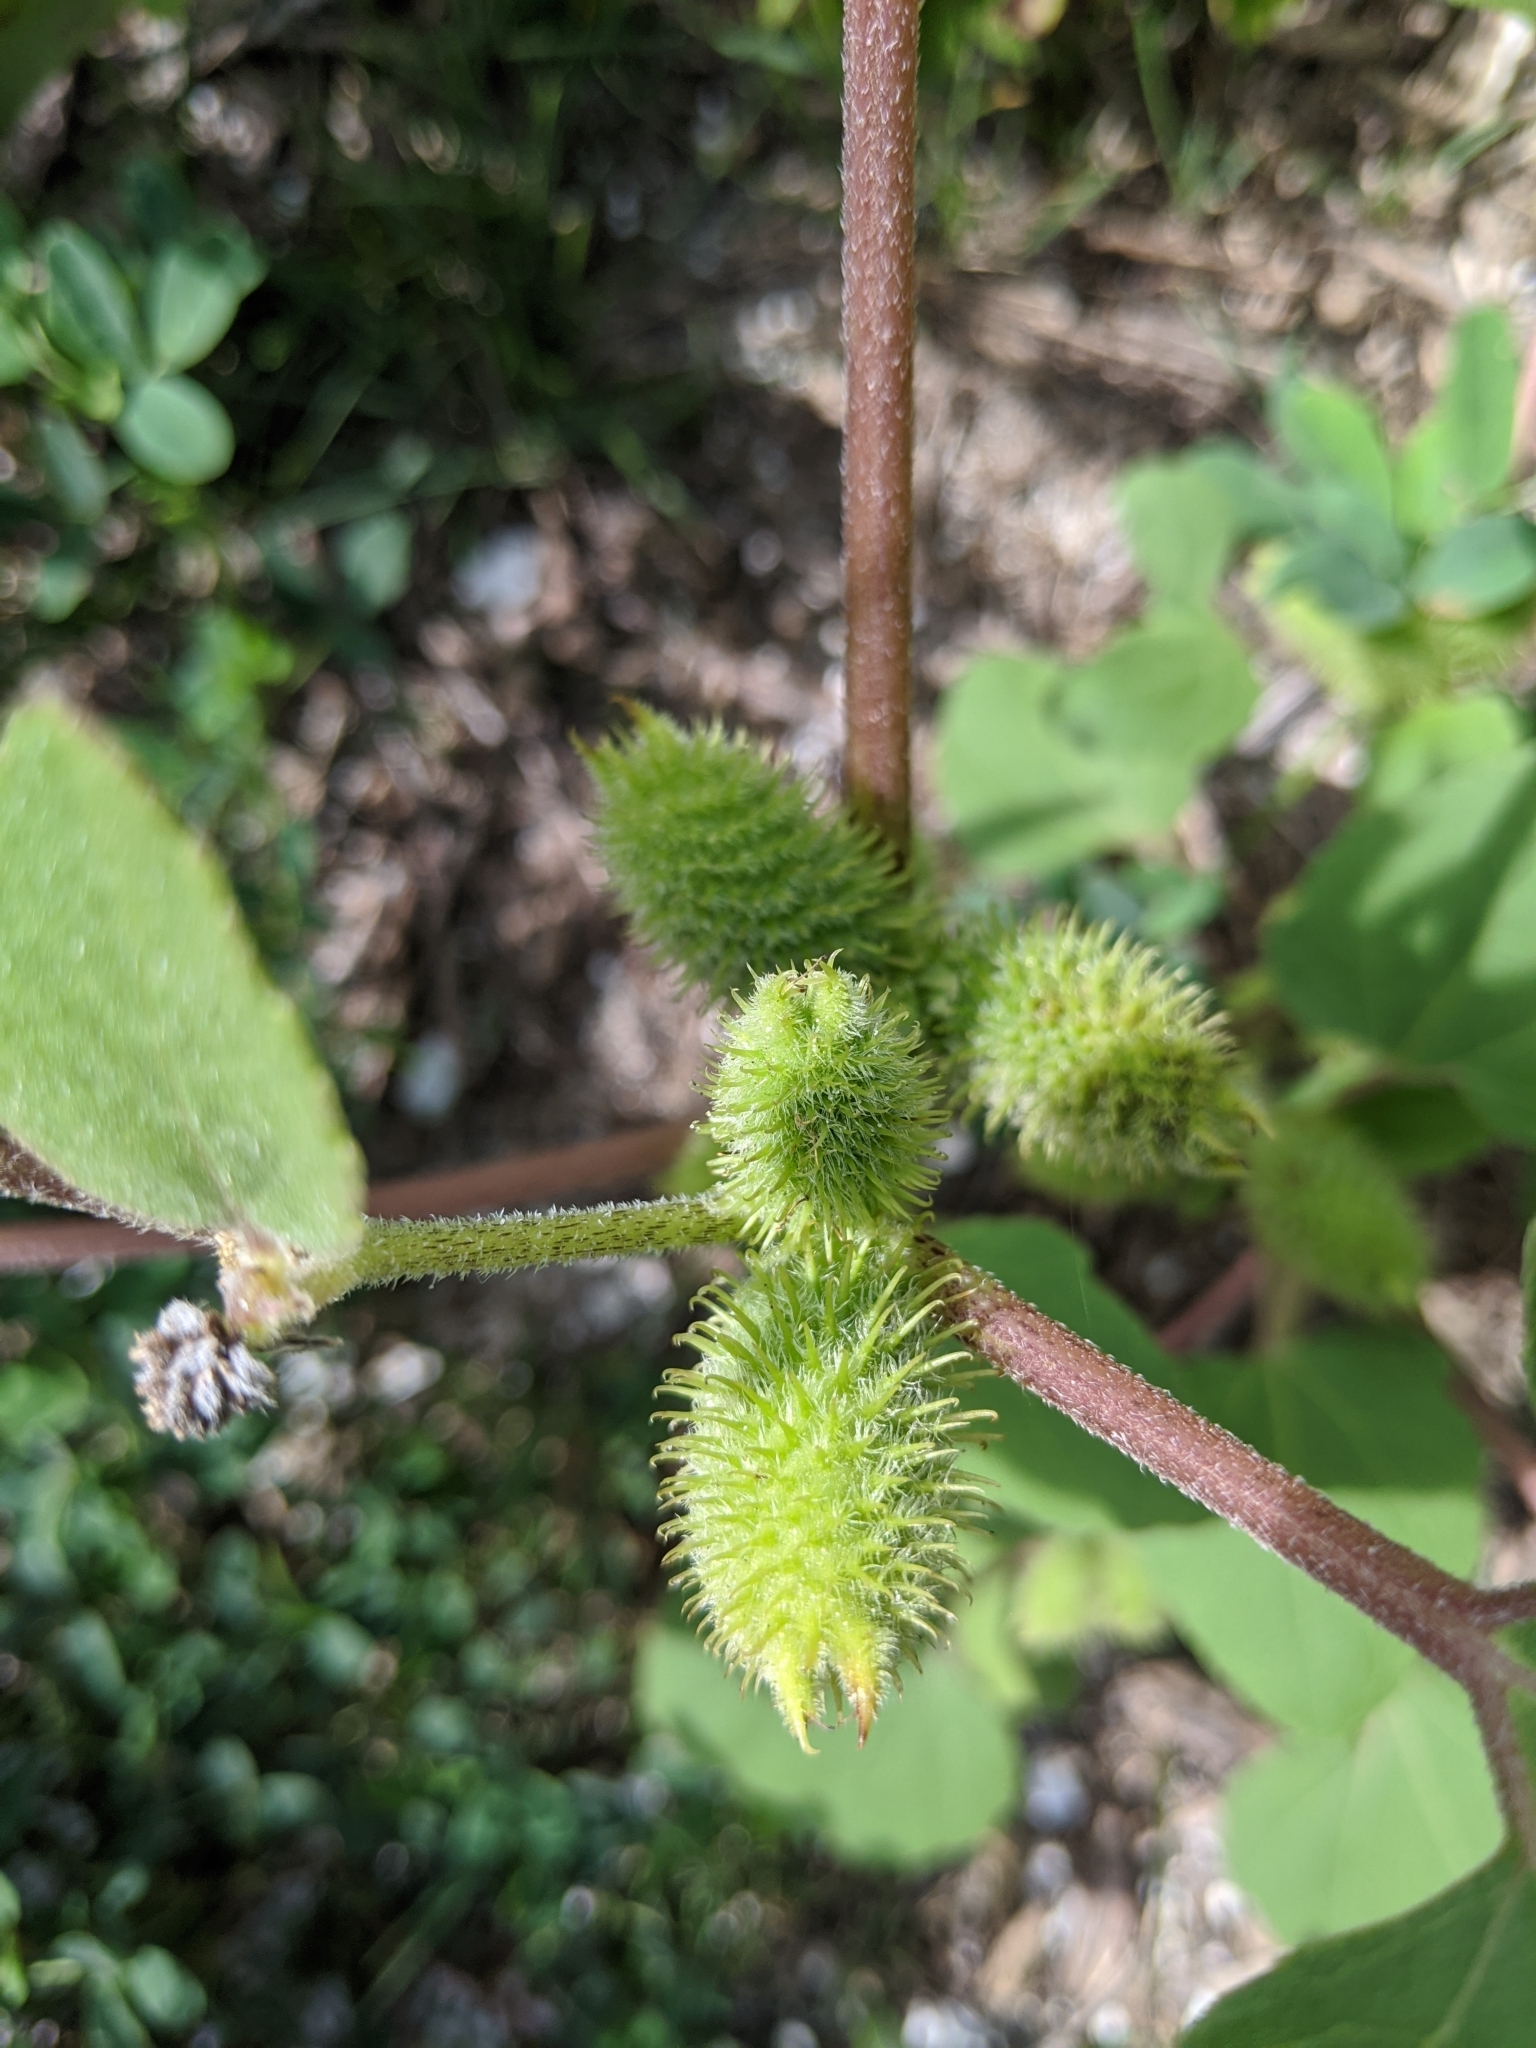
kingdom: Plantae
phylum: Tracheophyta
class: Magnoliopsida
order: Asterales
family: Asteraceae
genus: Xanthium
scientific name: Xanthium strumarium
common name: Rough cocklebur
